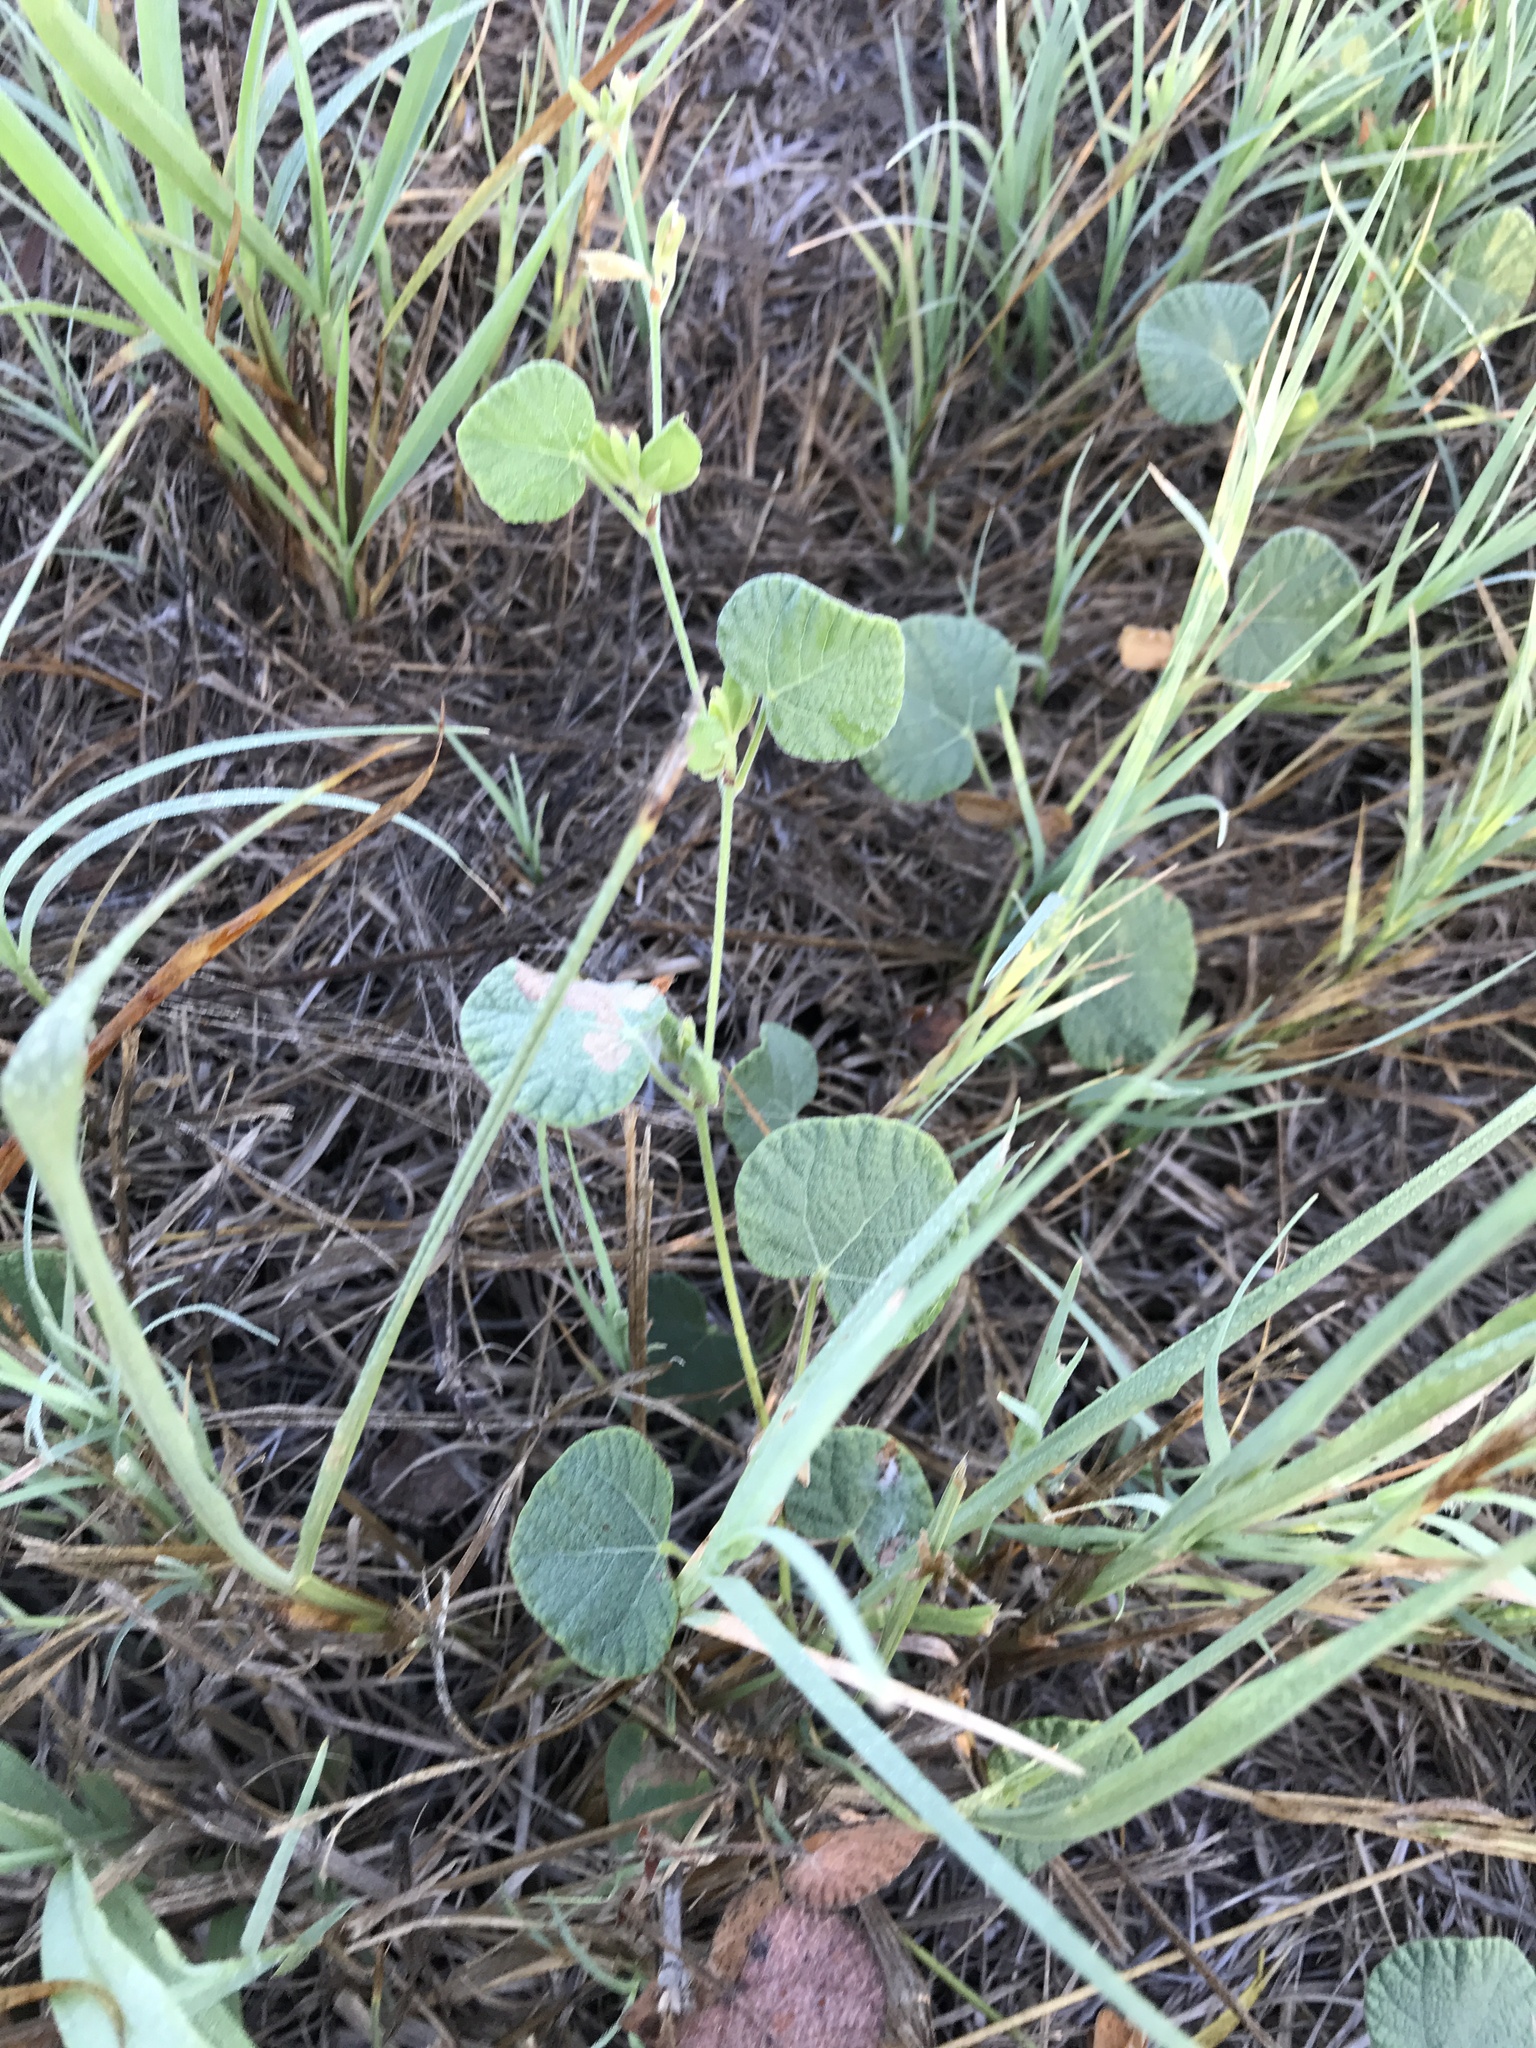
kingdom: Plantae
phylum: Tracheophyta
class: Magnoliopsida
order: Fabales
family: Fabaceae
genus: Rhynchosia
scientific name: Rhynchosia americana
